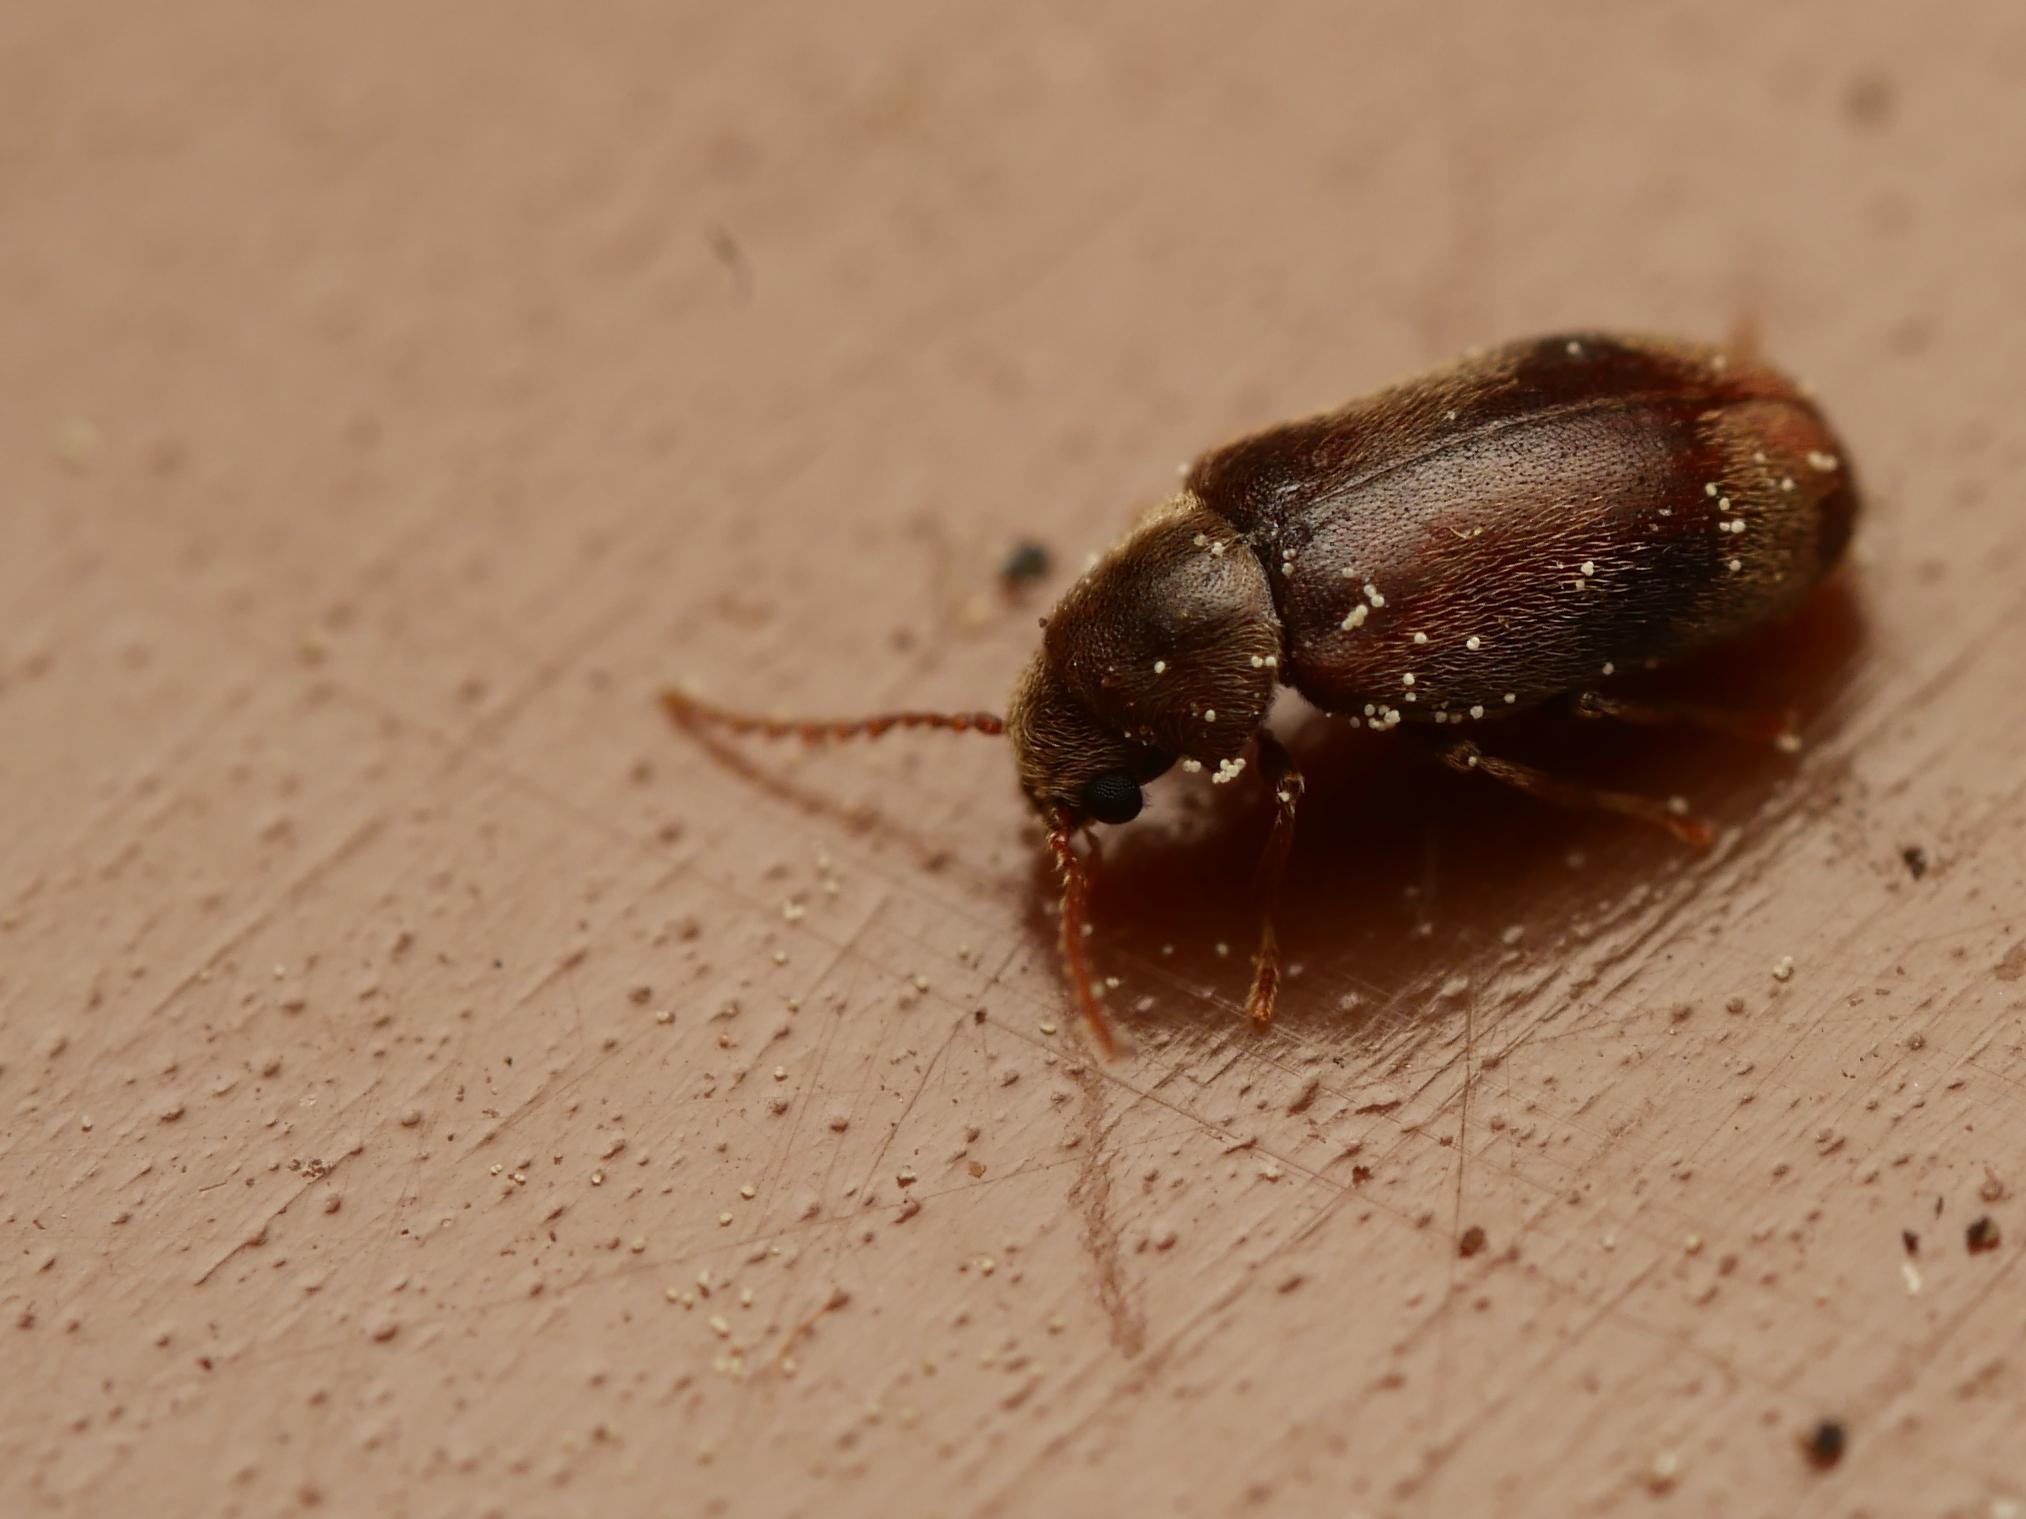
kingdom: Animalia
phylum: Arthropoda
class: Insecta
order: Coleoptera
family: Ptinidae
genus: Ochina
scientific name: Ochina ptinoides
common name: Ivy boring beetle
